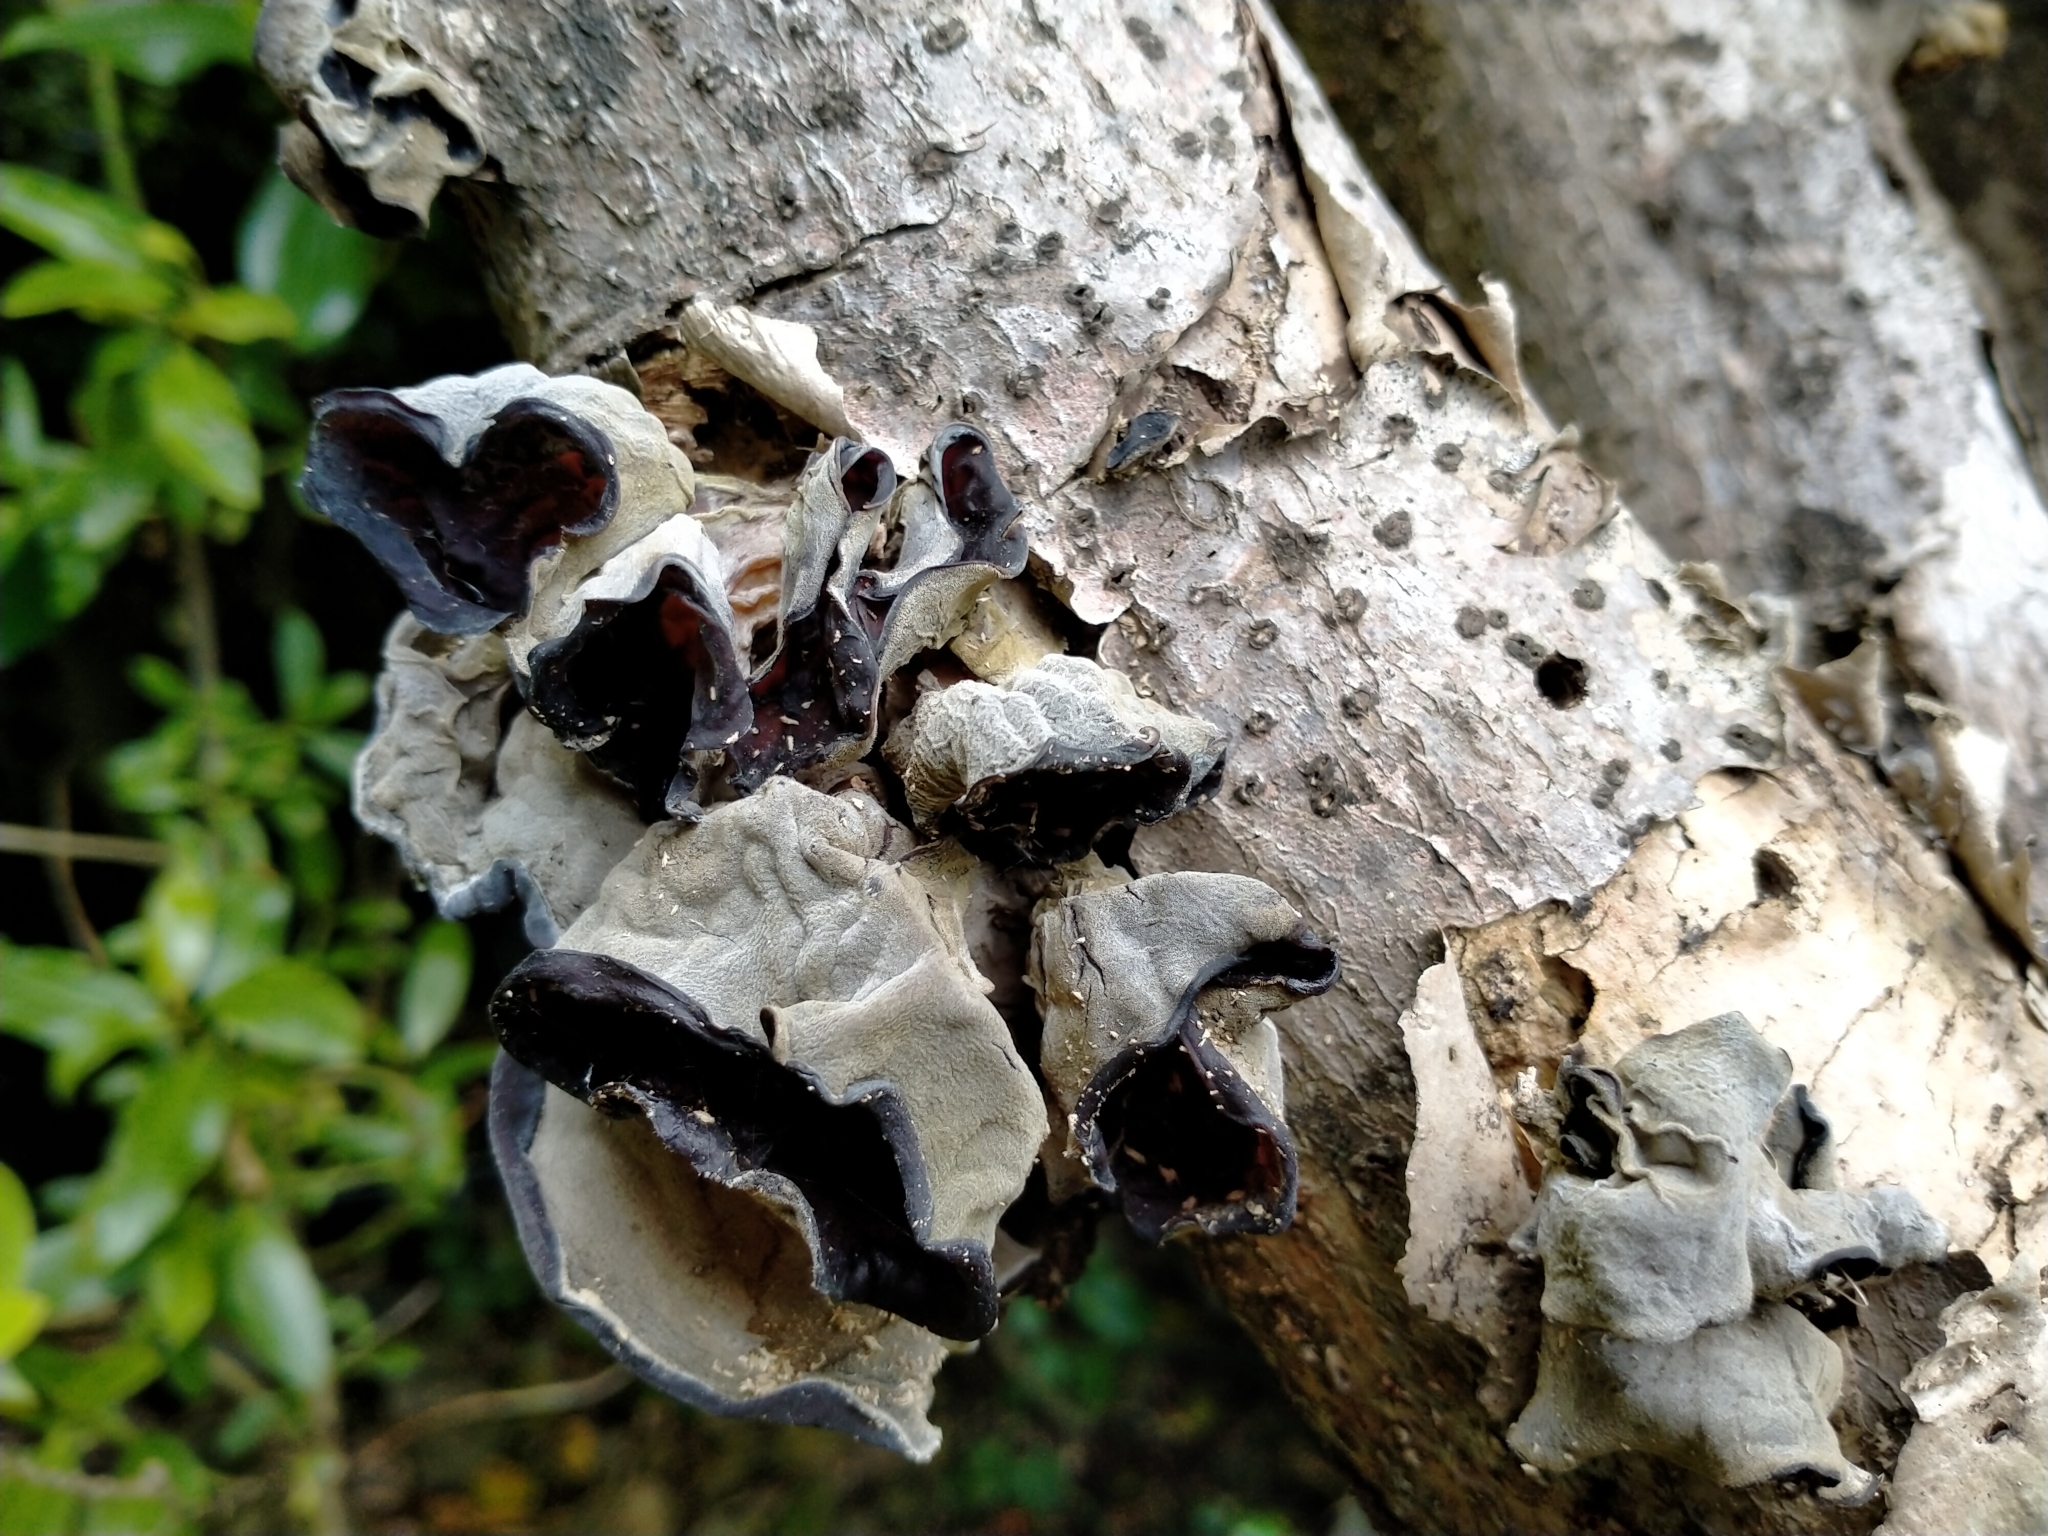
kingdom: Fungi
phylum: Basidiomycota
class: Agaricomycetes
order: Auriculariales
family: Auriculariaceae
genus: Auricularia
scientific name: Auricularia cornea
